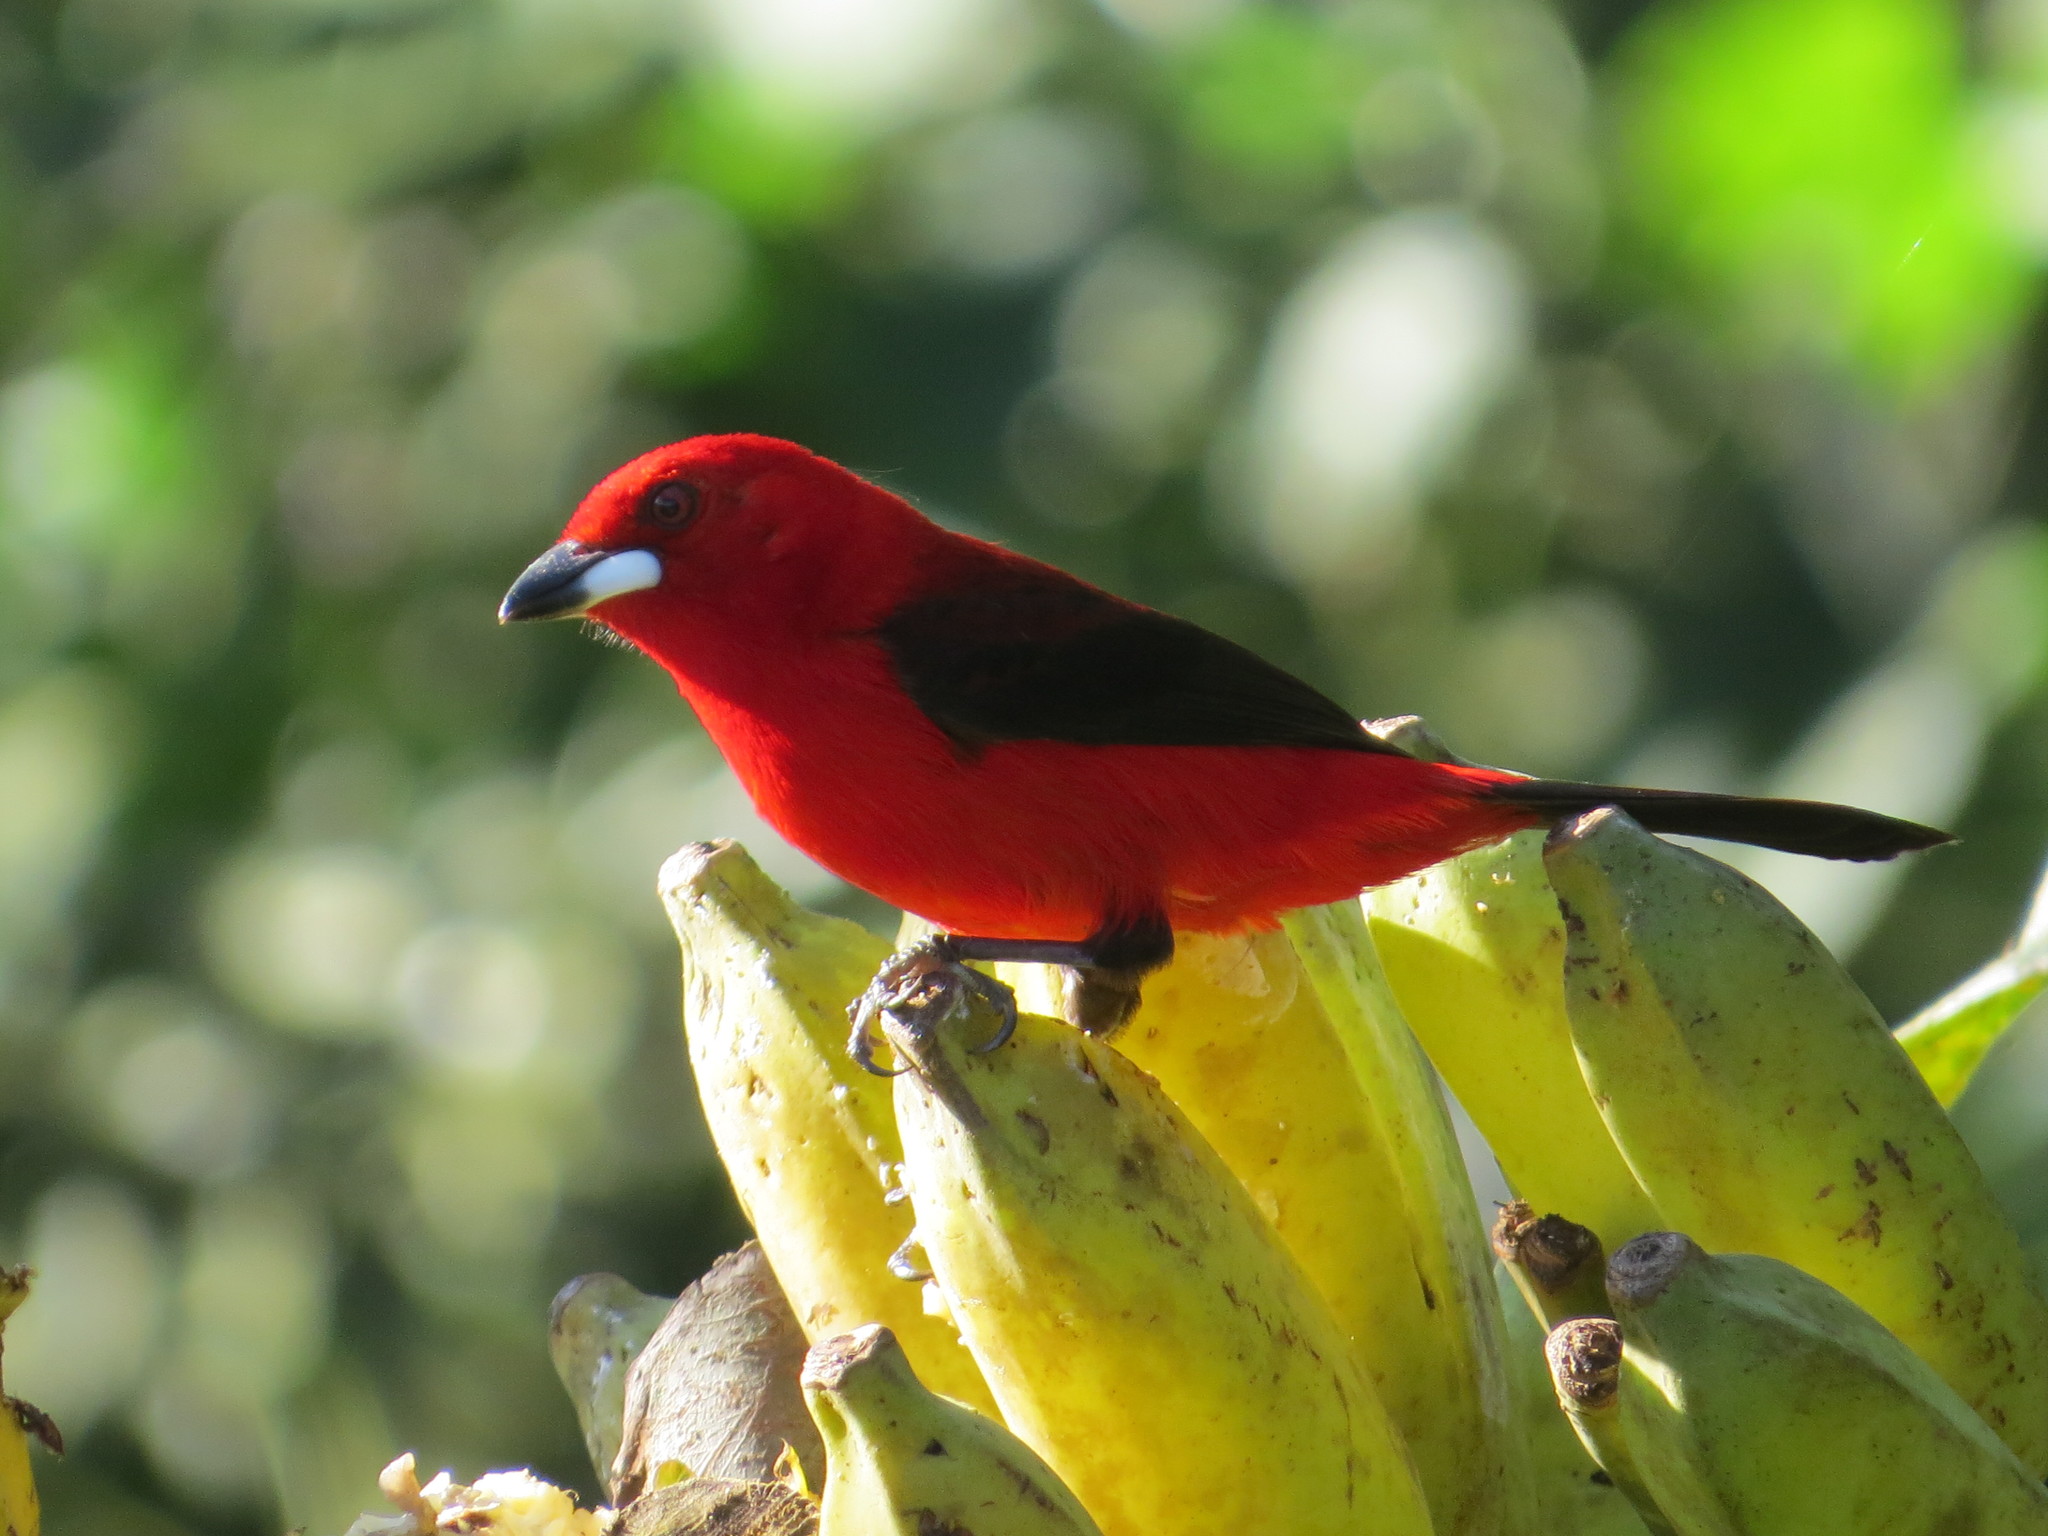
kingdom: Animalia
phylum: Chordata
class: Aves
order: Passeriformes
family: Thraupidae
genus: Ramphocelus
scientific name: Ramphocelus bresilia
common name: Brazilian tanager
